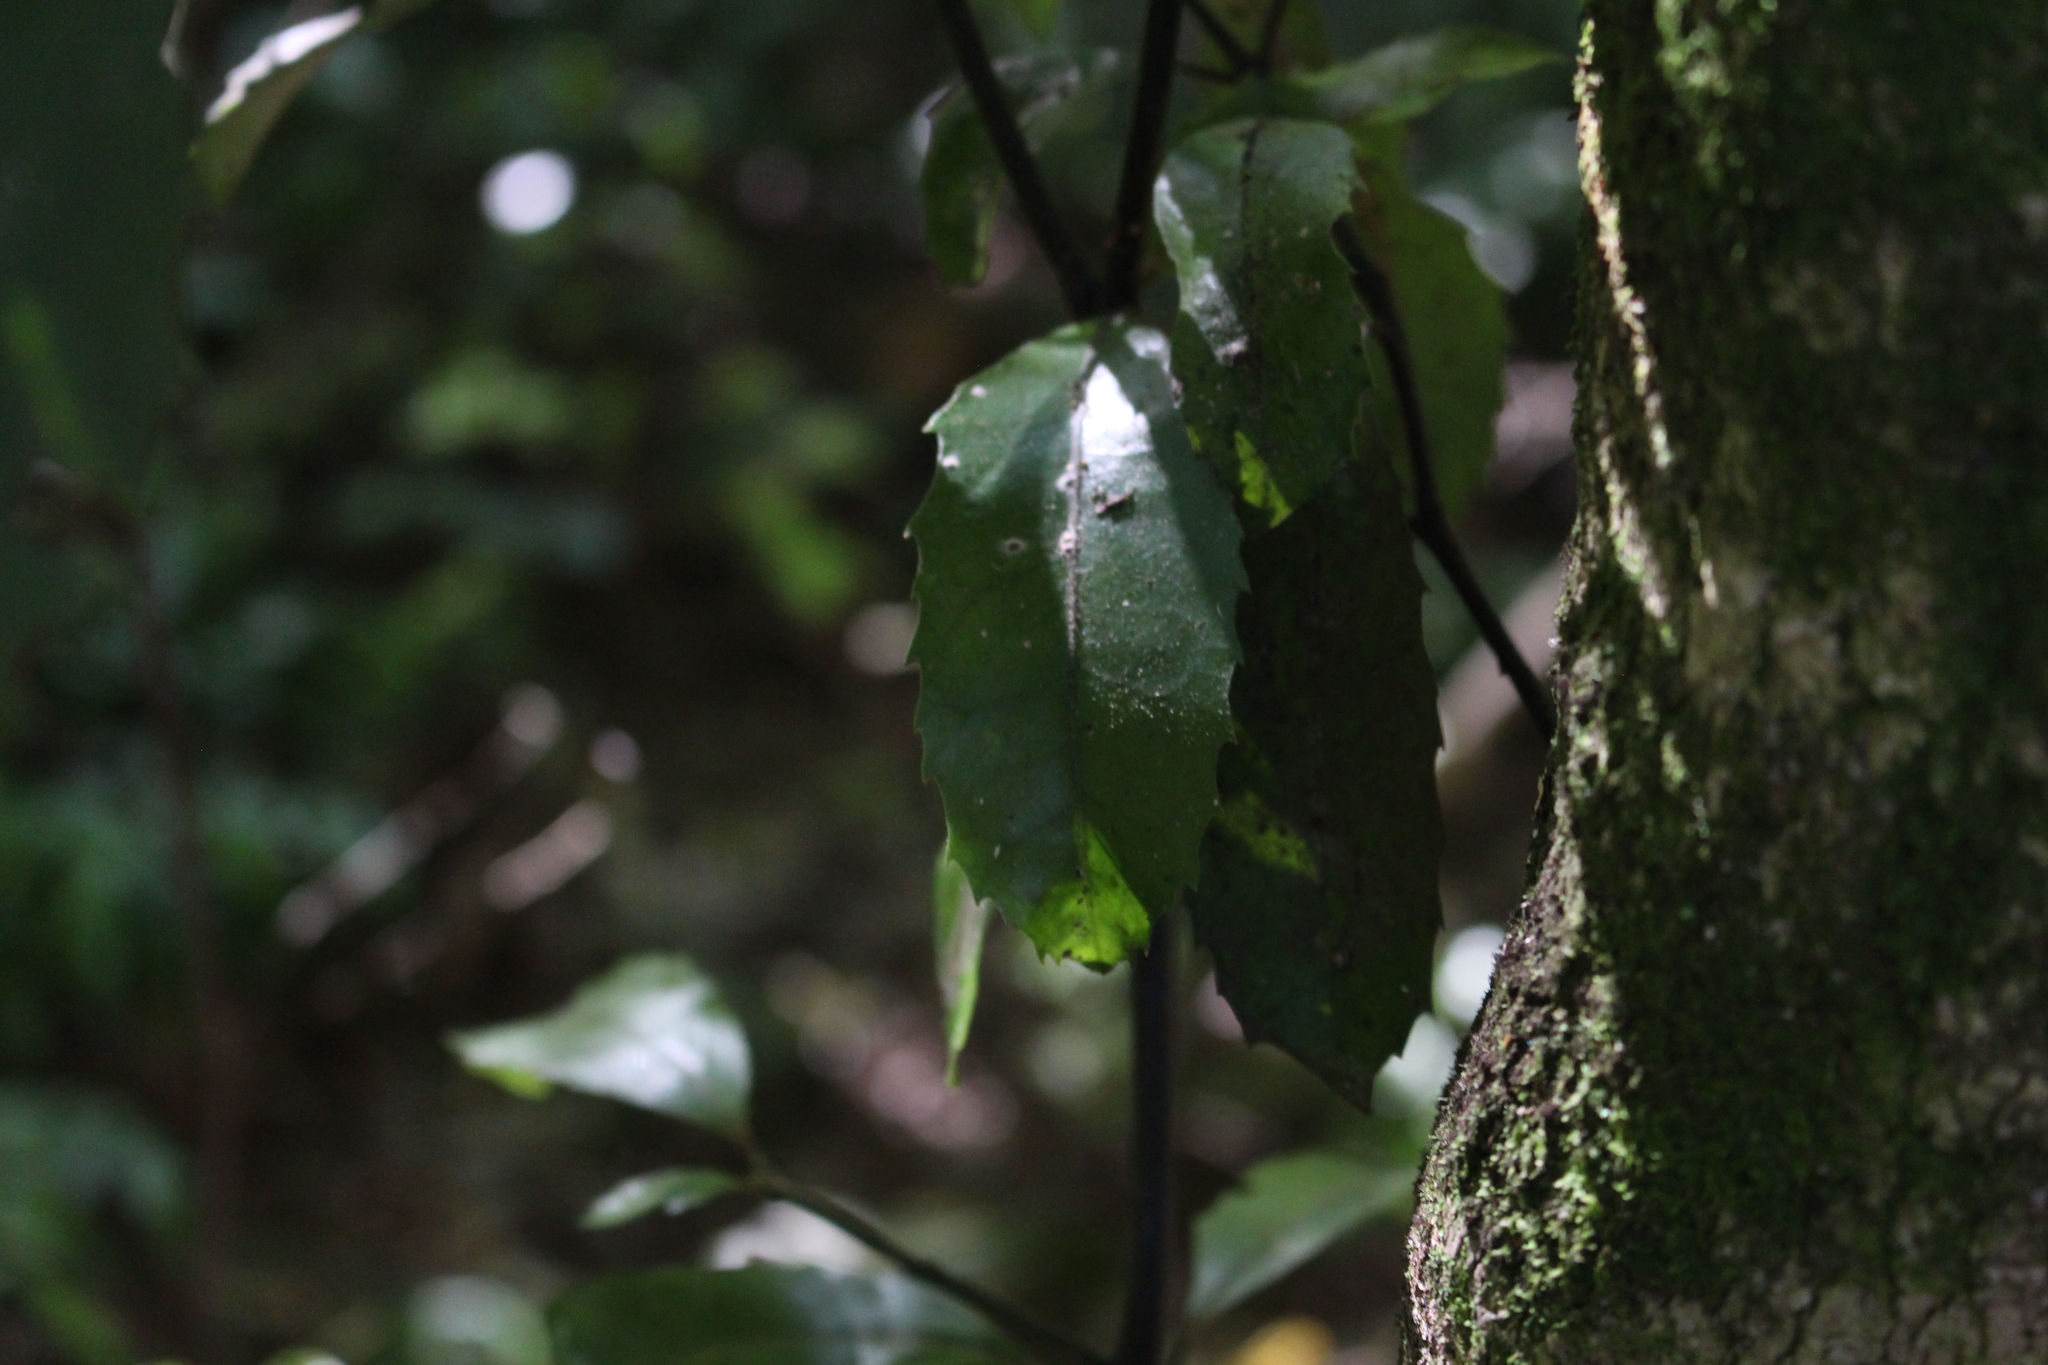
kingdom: Plantae
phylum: Tracheophyta
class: Magnoliopsida
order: Laurales
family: Monimiaceae
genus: Hedycarya
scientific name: Hedycarya arborea
